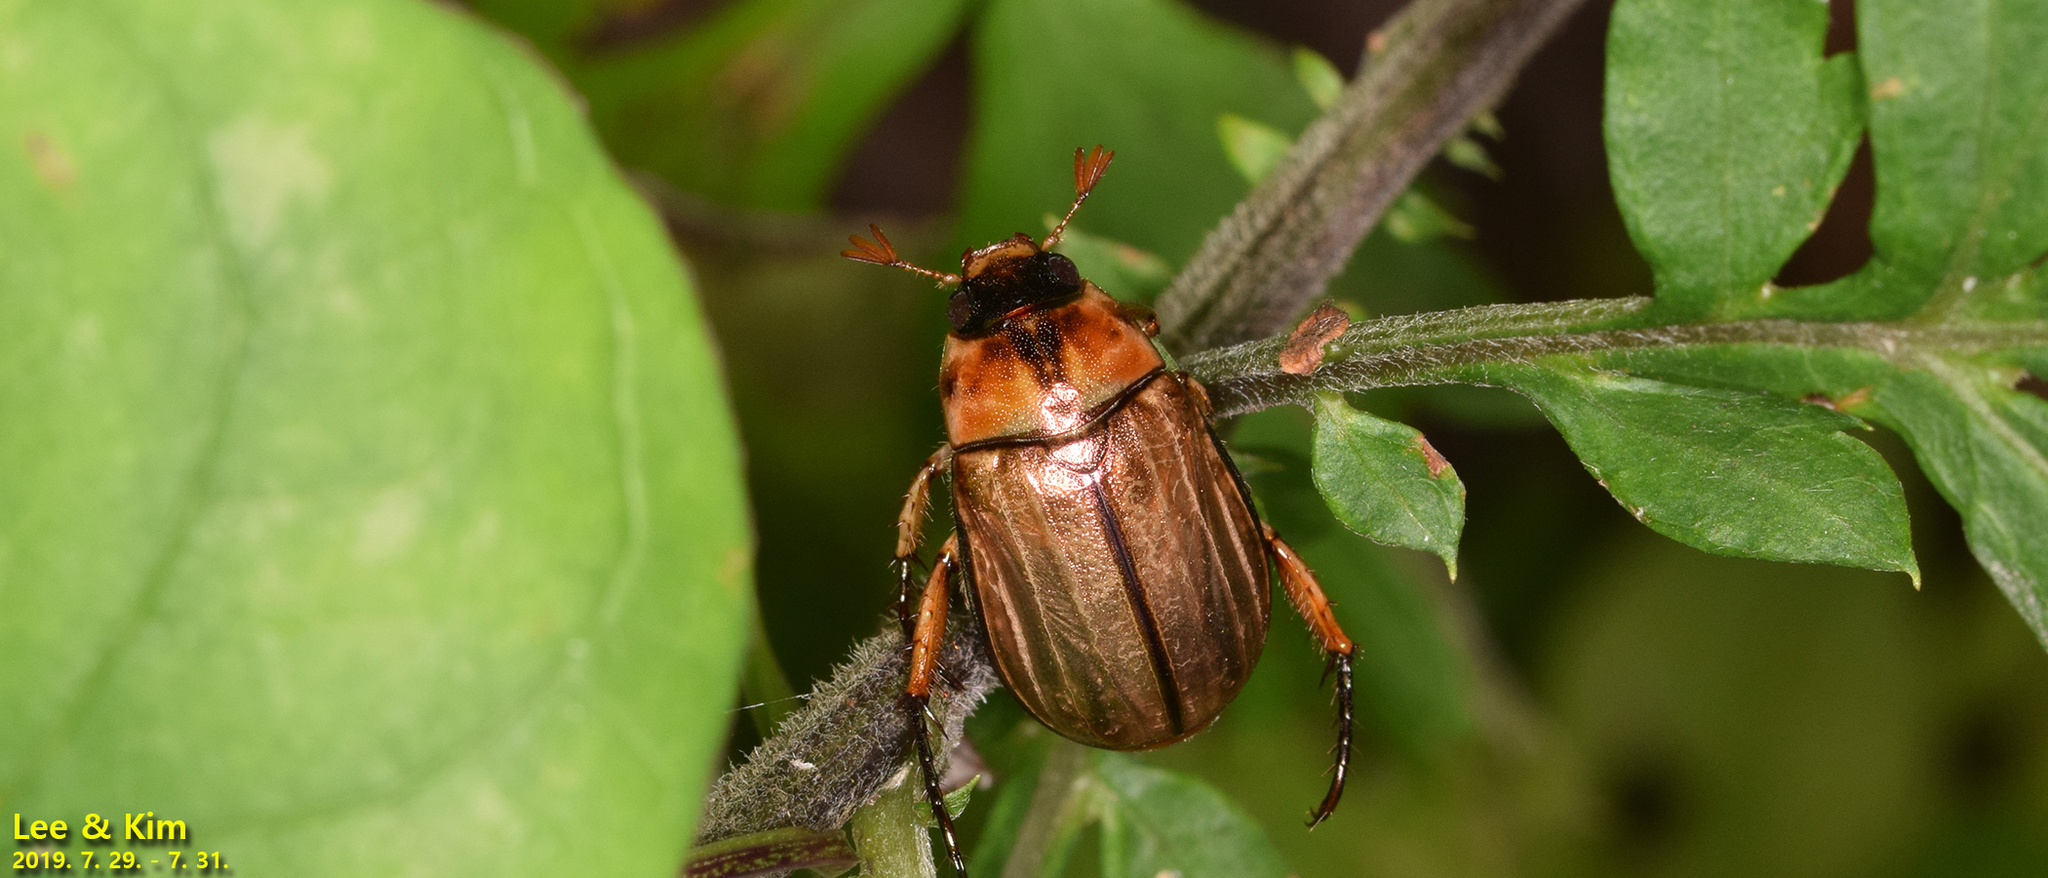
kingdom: Animalia
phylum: Arthropoda
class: Insecta
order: Coleoptera
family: Scarabaeidae
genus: Mimela
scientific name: Mimela testaceipes
